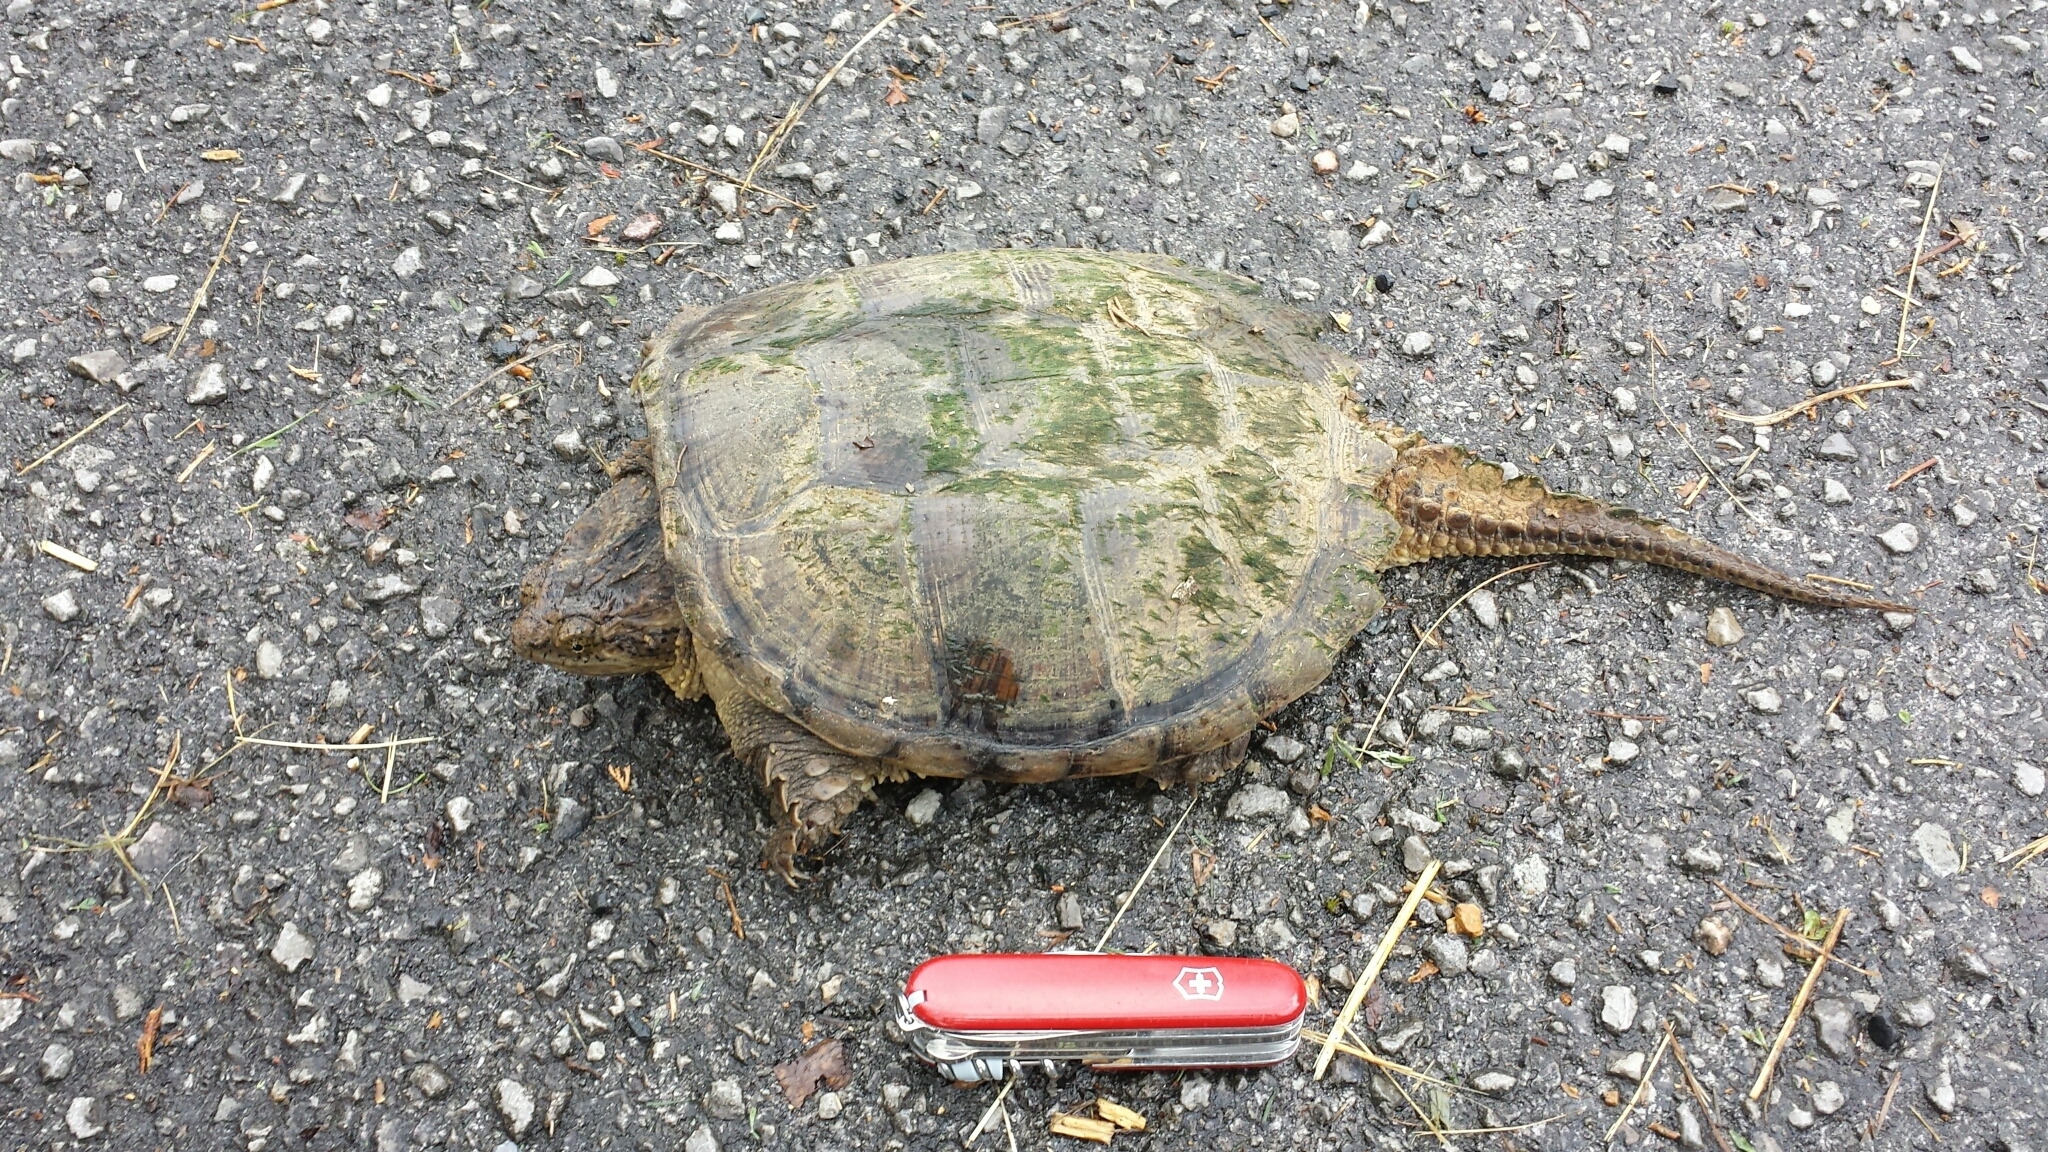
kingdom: Animalia
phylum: Chordata
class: Testudines
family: Chelydridae
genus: Chelydra
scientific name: Chelydra serpentina
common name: Common snapping turtle
